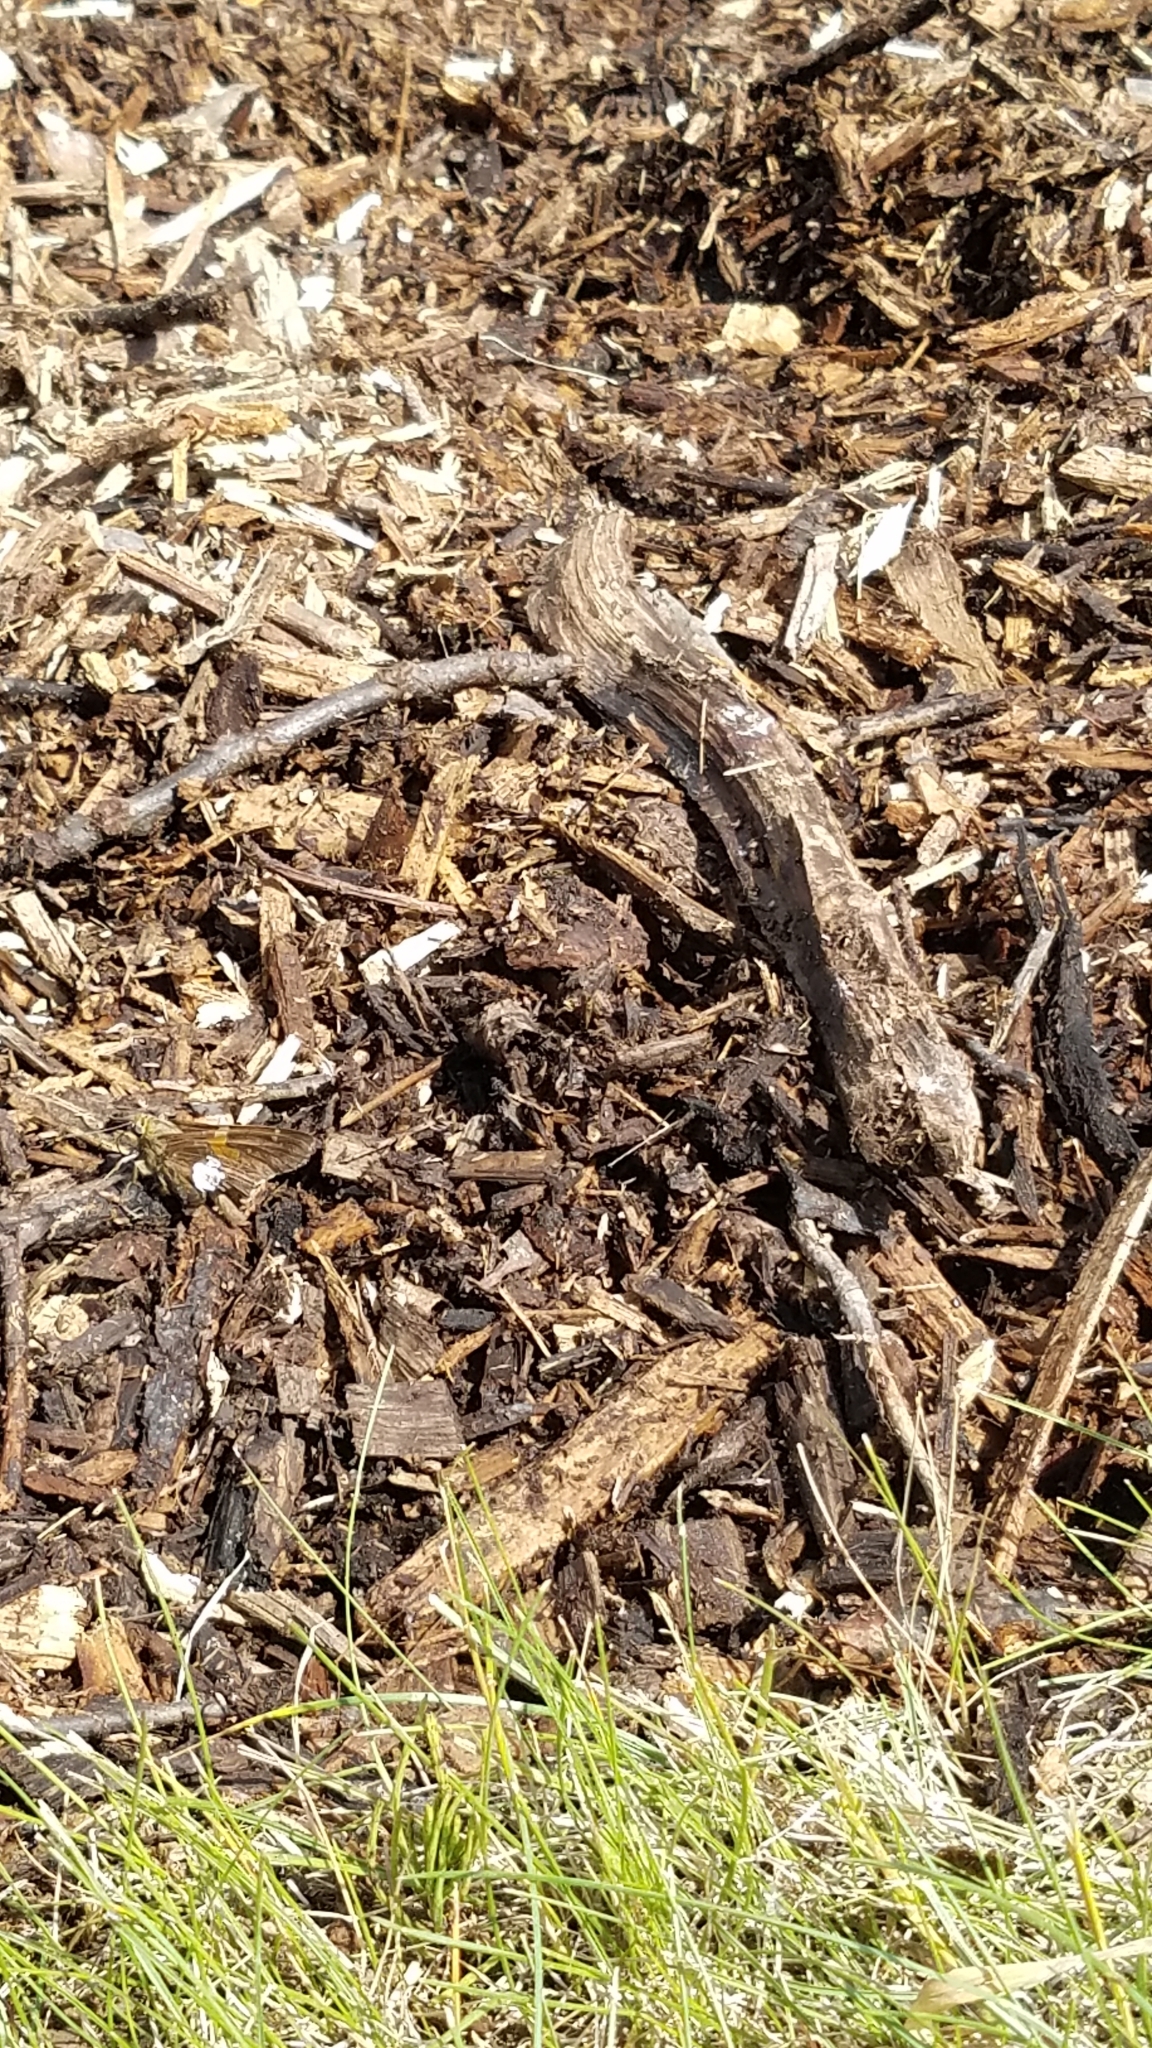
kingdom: Animalia
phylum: Arthropoda
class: Insecta
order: Lepidoptera
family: Hesperiidae
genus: Epargyreus
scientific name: Epargyreus clarus
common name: Silver-spotted skipper
